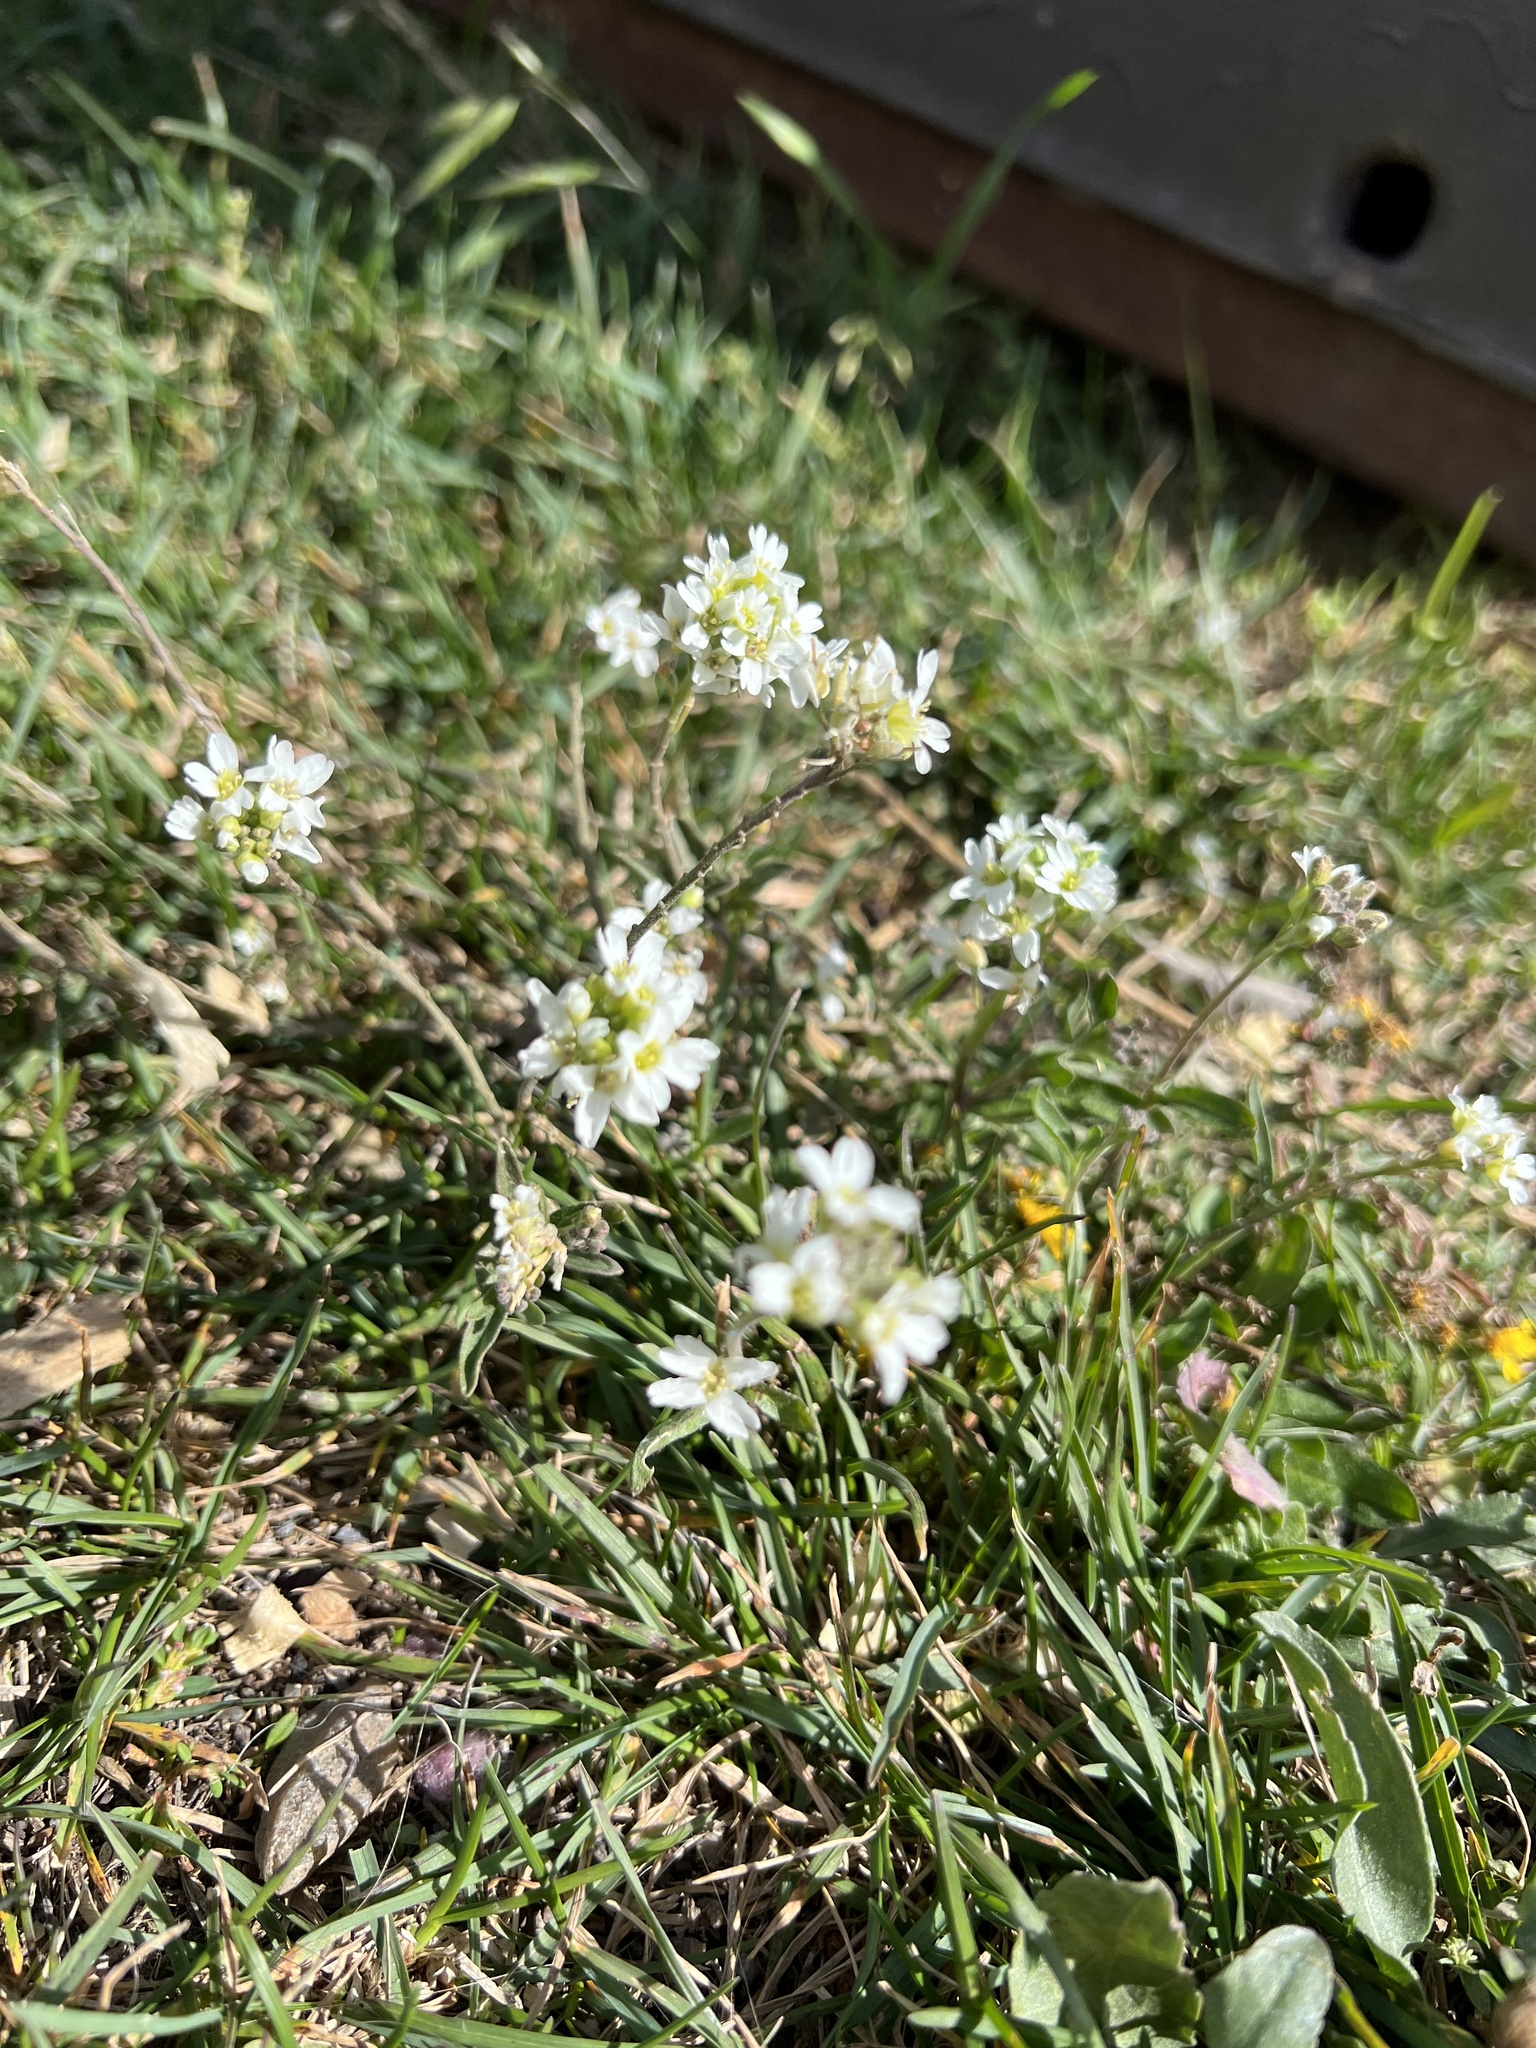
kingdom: Plantae
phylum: Tracheophyta
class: Magnoliopsida
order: Brassicales
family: Brassicaceae
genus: Berteroa
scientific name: Berteroa incana
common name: Hoary alison
